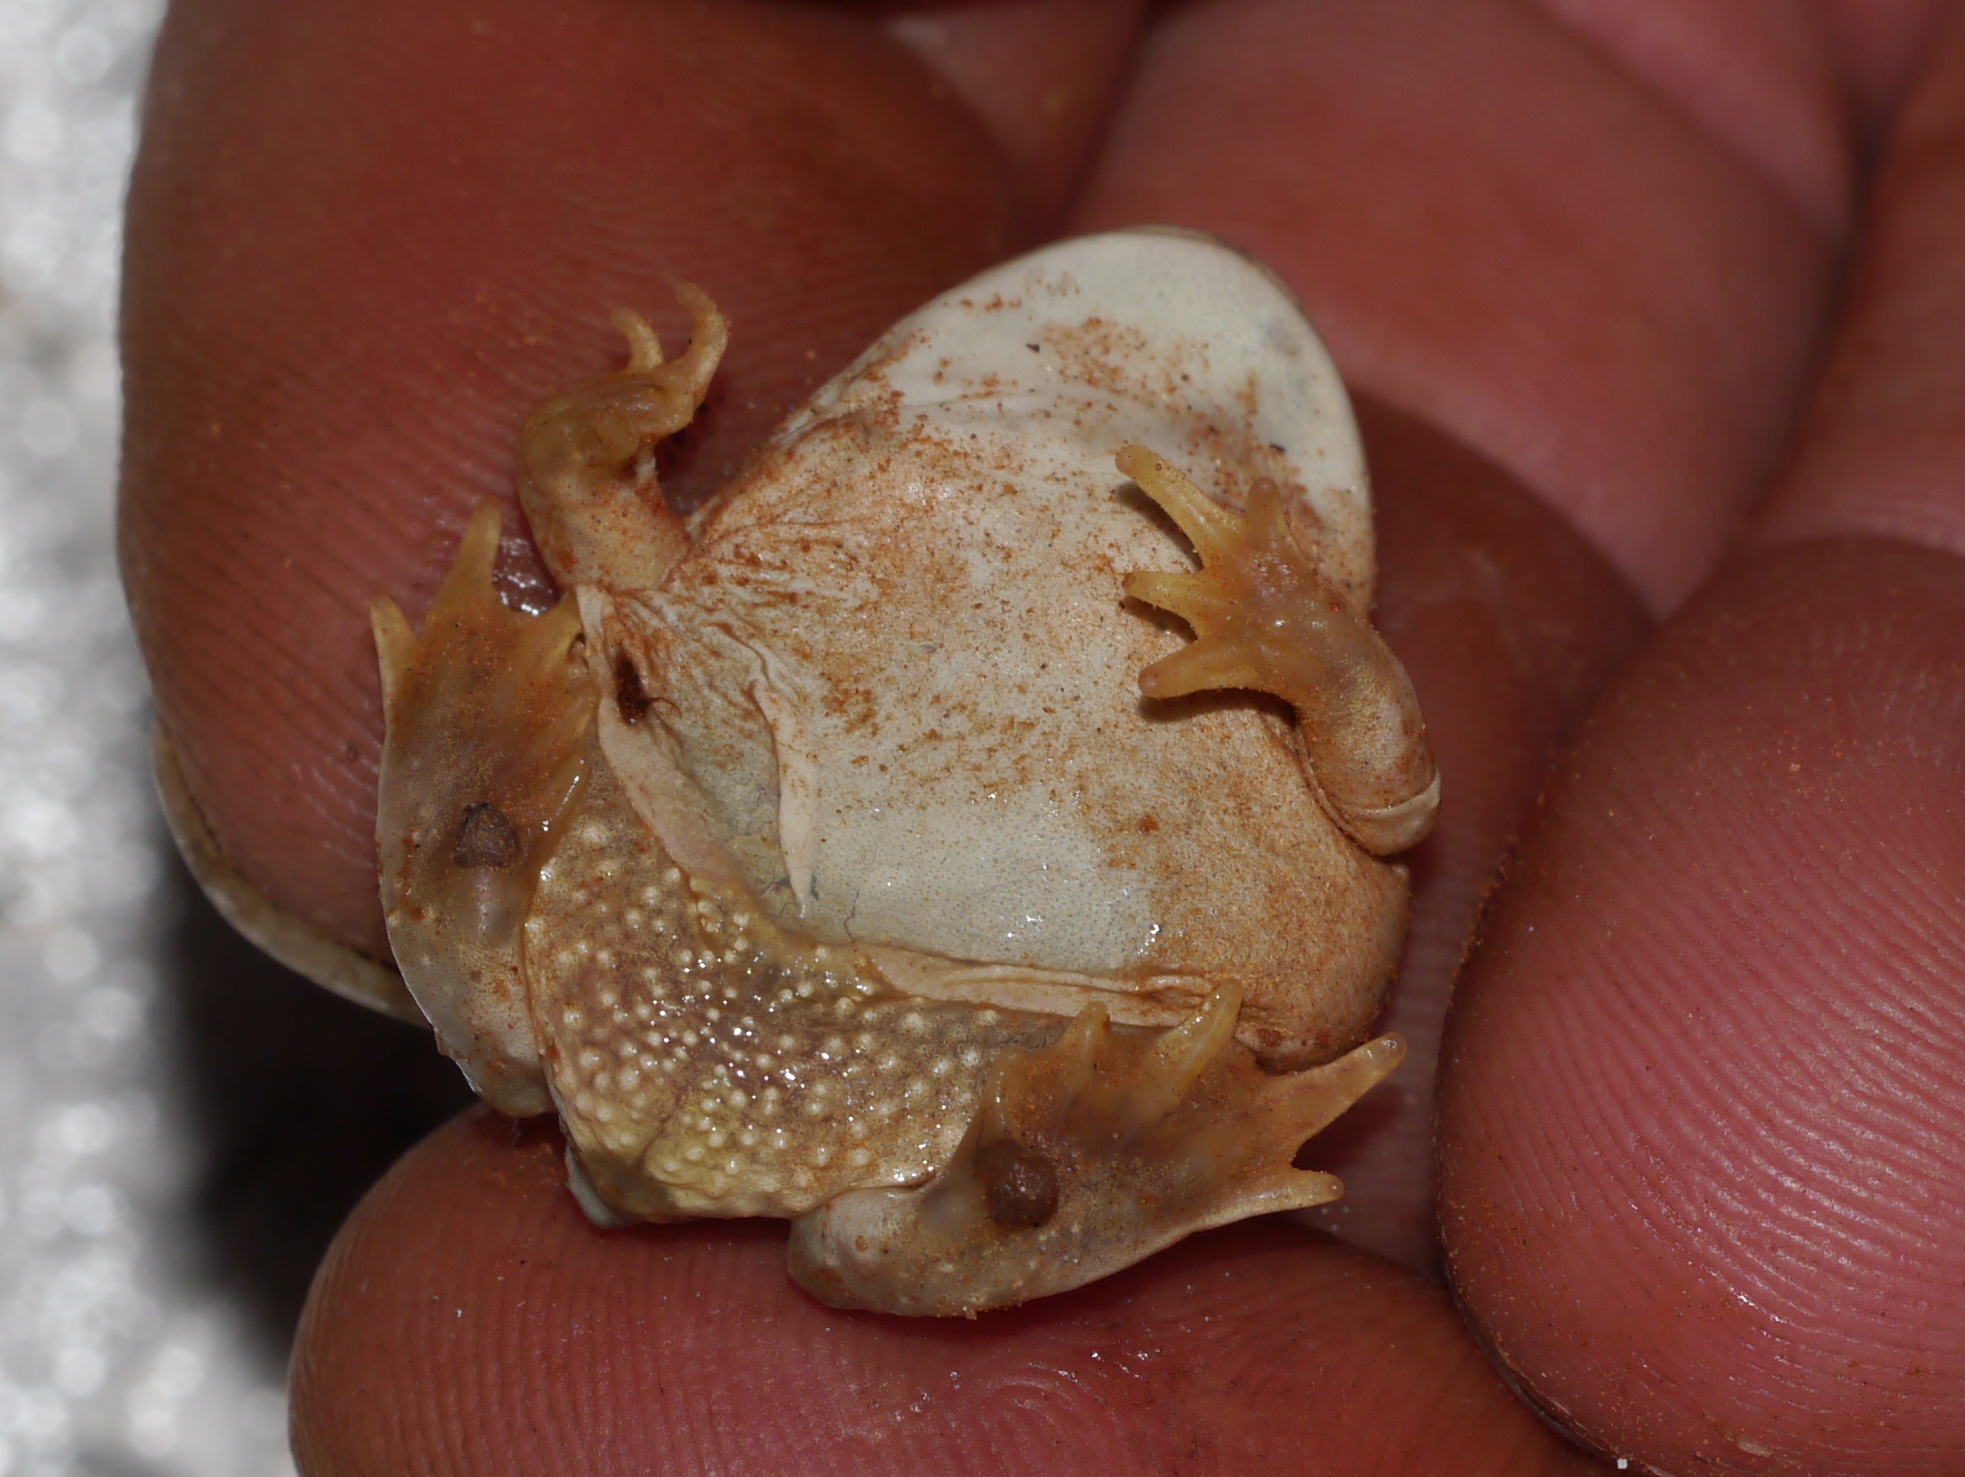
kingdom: Animalia
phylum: Chordata
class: Amphibia
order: Anura
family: Scaphiopodidae
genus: Spea
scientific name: Spea multiplicata
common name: Mexican spadefoot
